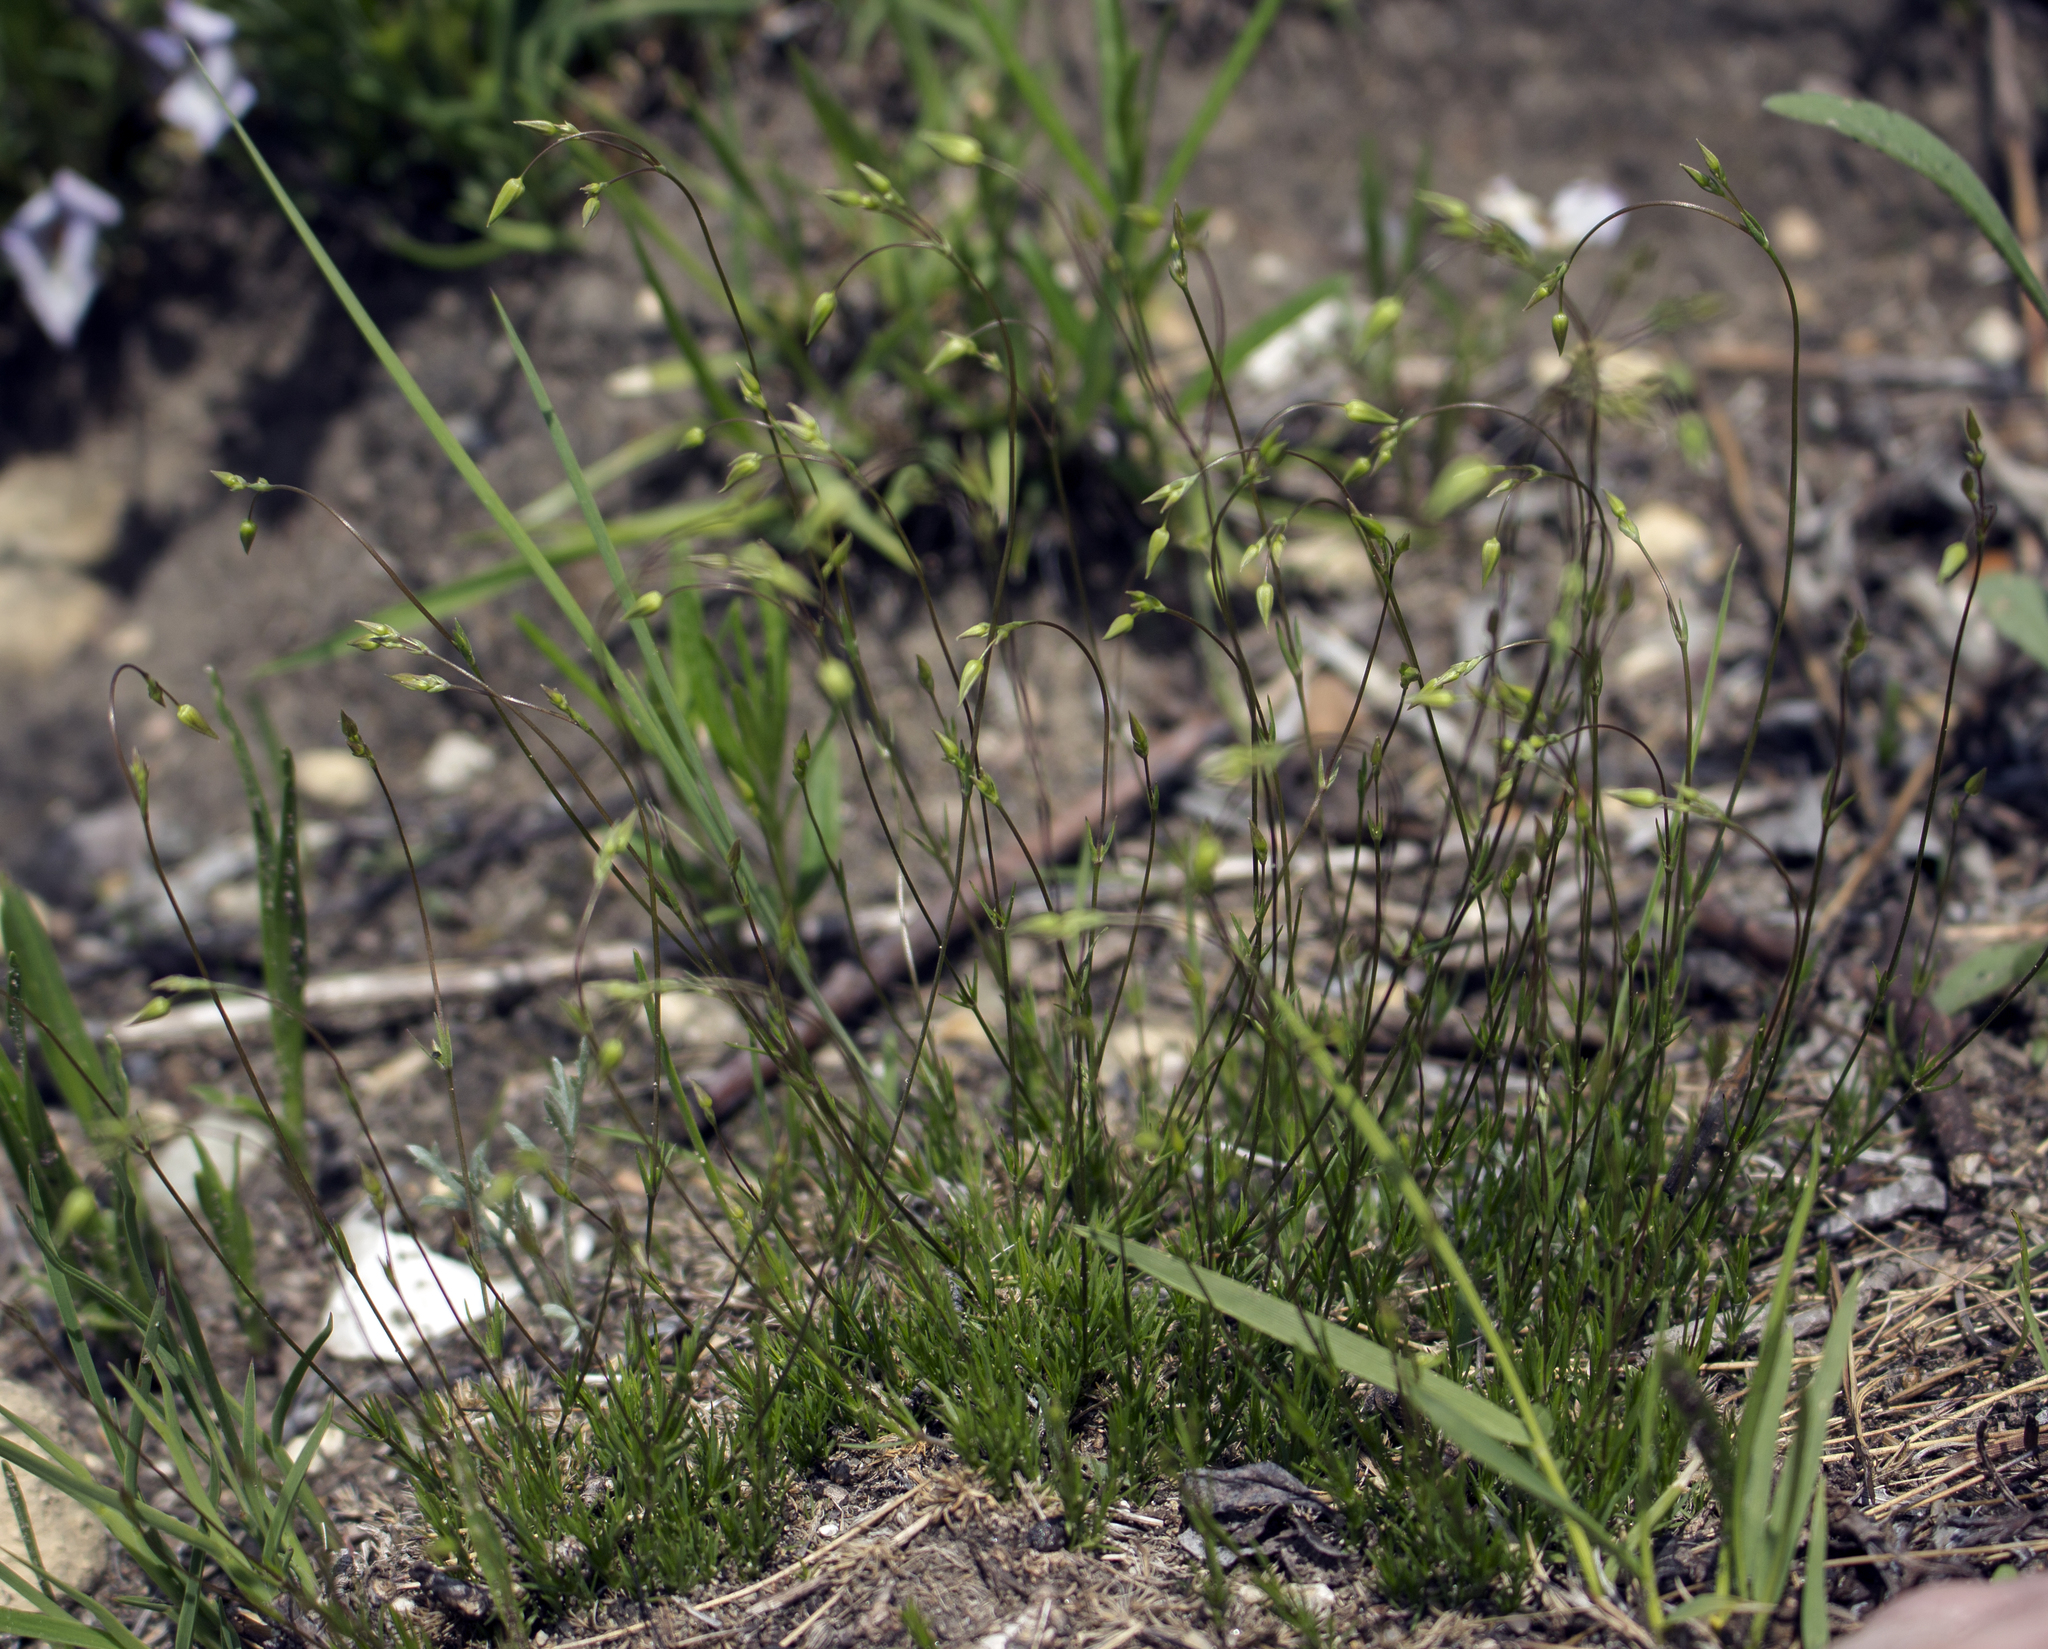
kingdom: Plantae
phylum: Tracheophyta
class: Magnoliopsida
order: Caryophyllales
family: Caryophyllaceae
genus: Sabulina
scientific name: Sabulina michauxii
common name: Michaux's stitchwort
